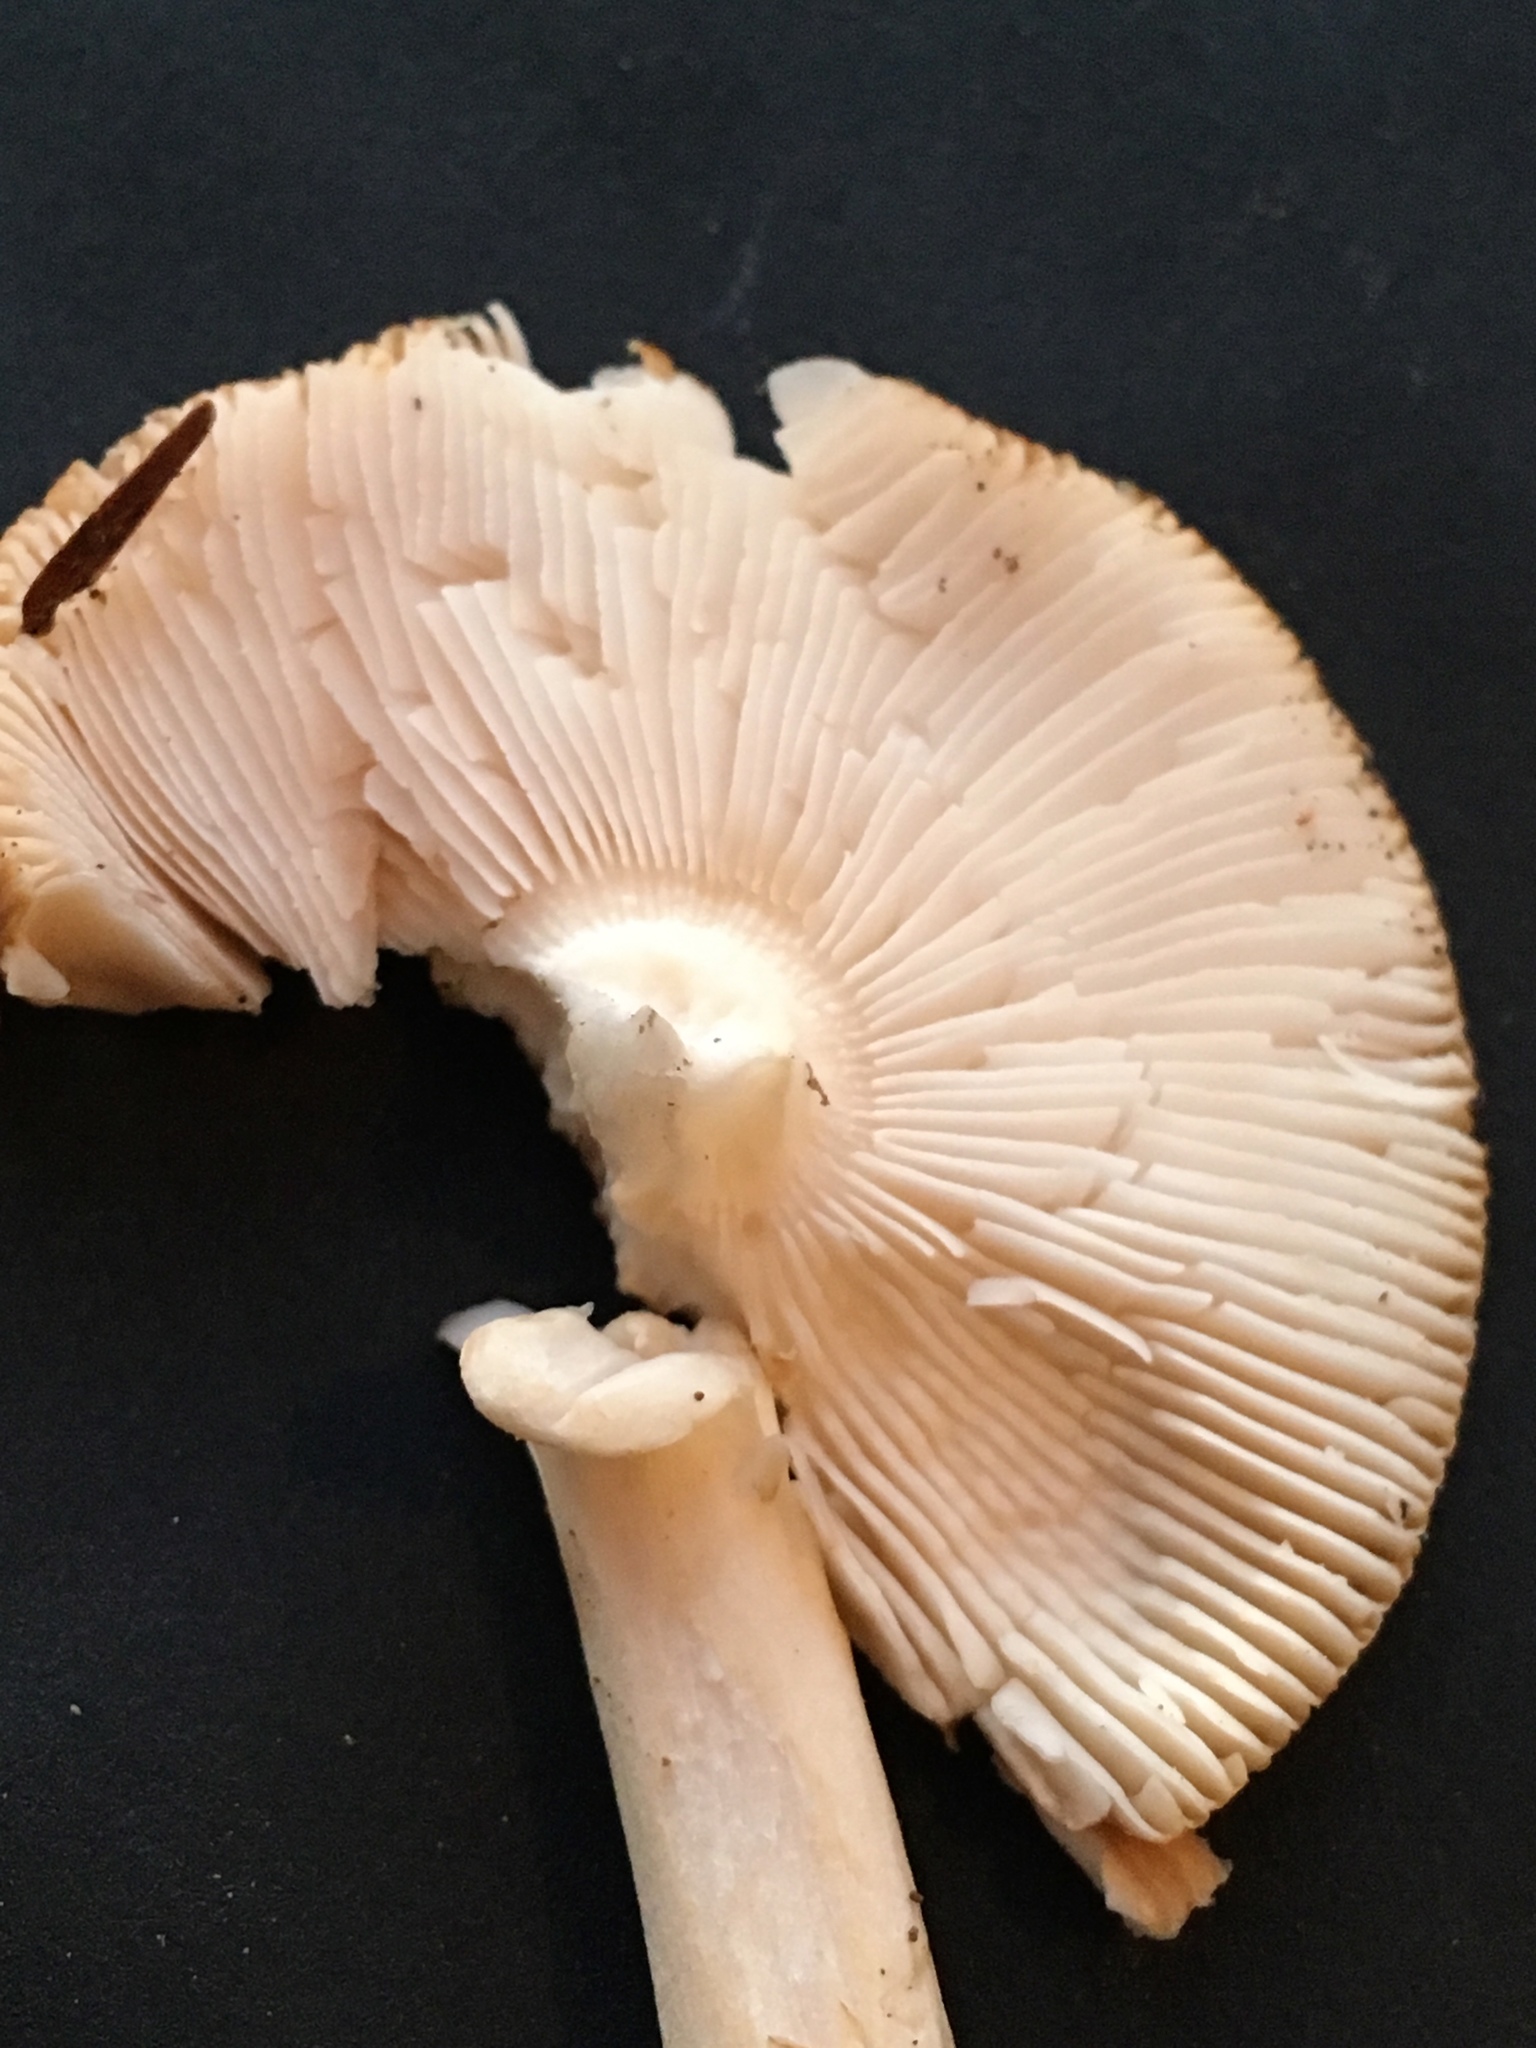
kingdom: Fungi
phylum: Basidiomycota
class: Agaricomycetes
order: Agaricales
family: Amanitaceae
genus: Amanita
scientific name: Amanita fulva
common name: Tawny grisette
